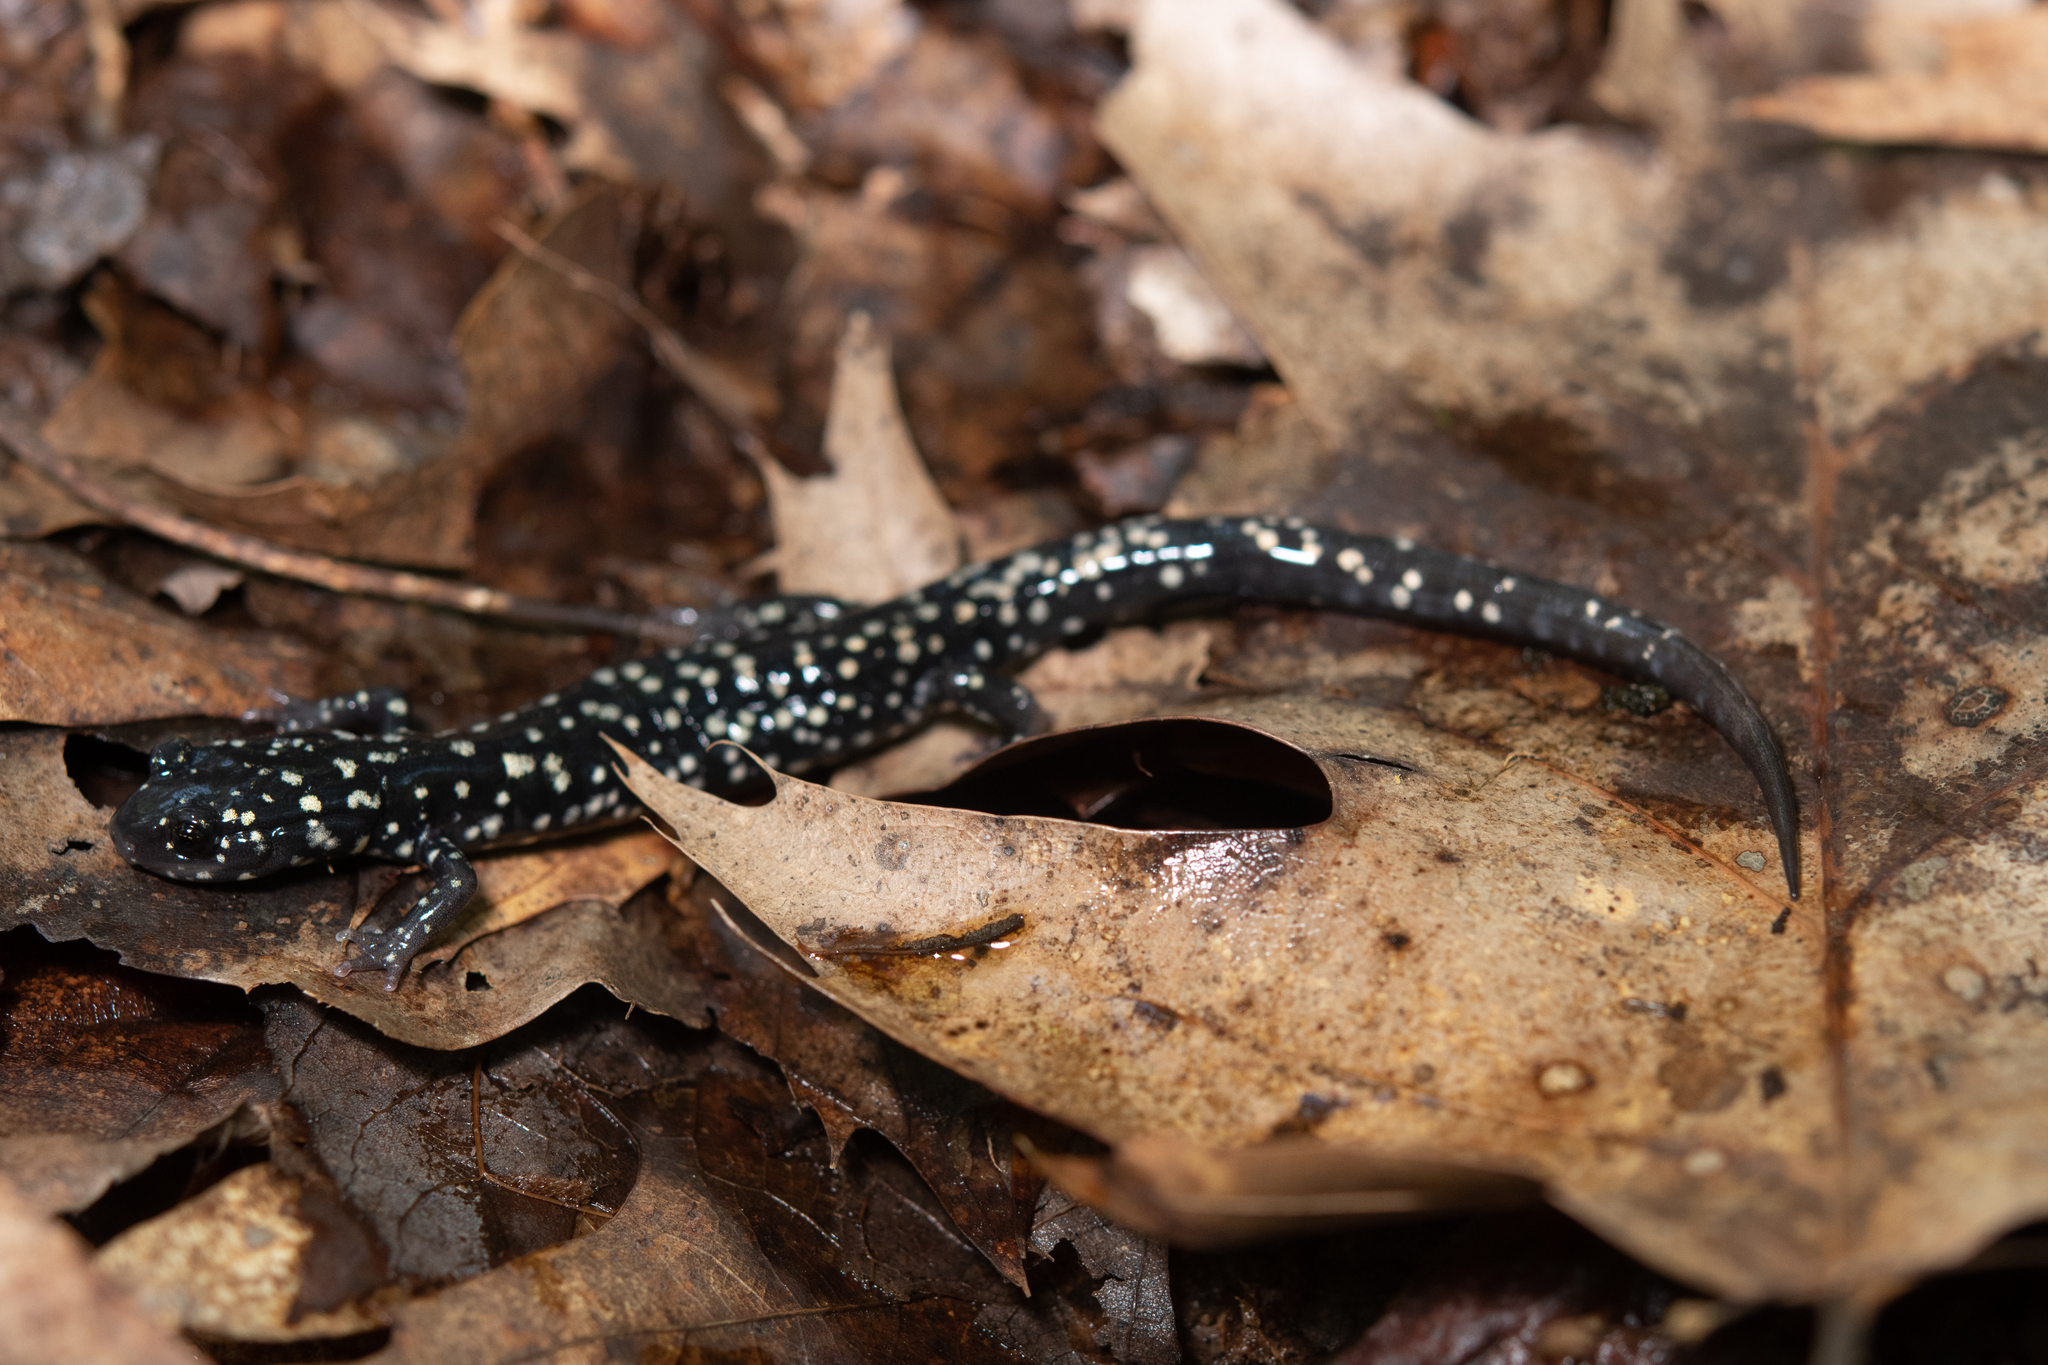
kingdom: Animalia
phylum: Chordata
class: Amphibia
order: Caudata
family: Plethodontidae
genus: Plethodon
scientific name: Plethodon glutinosus
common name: Northern slimy salamander
